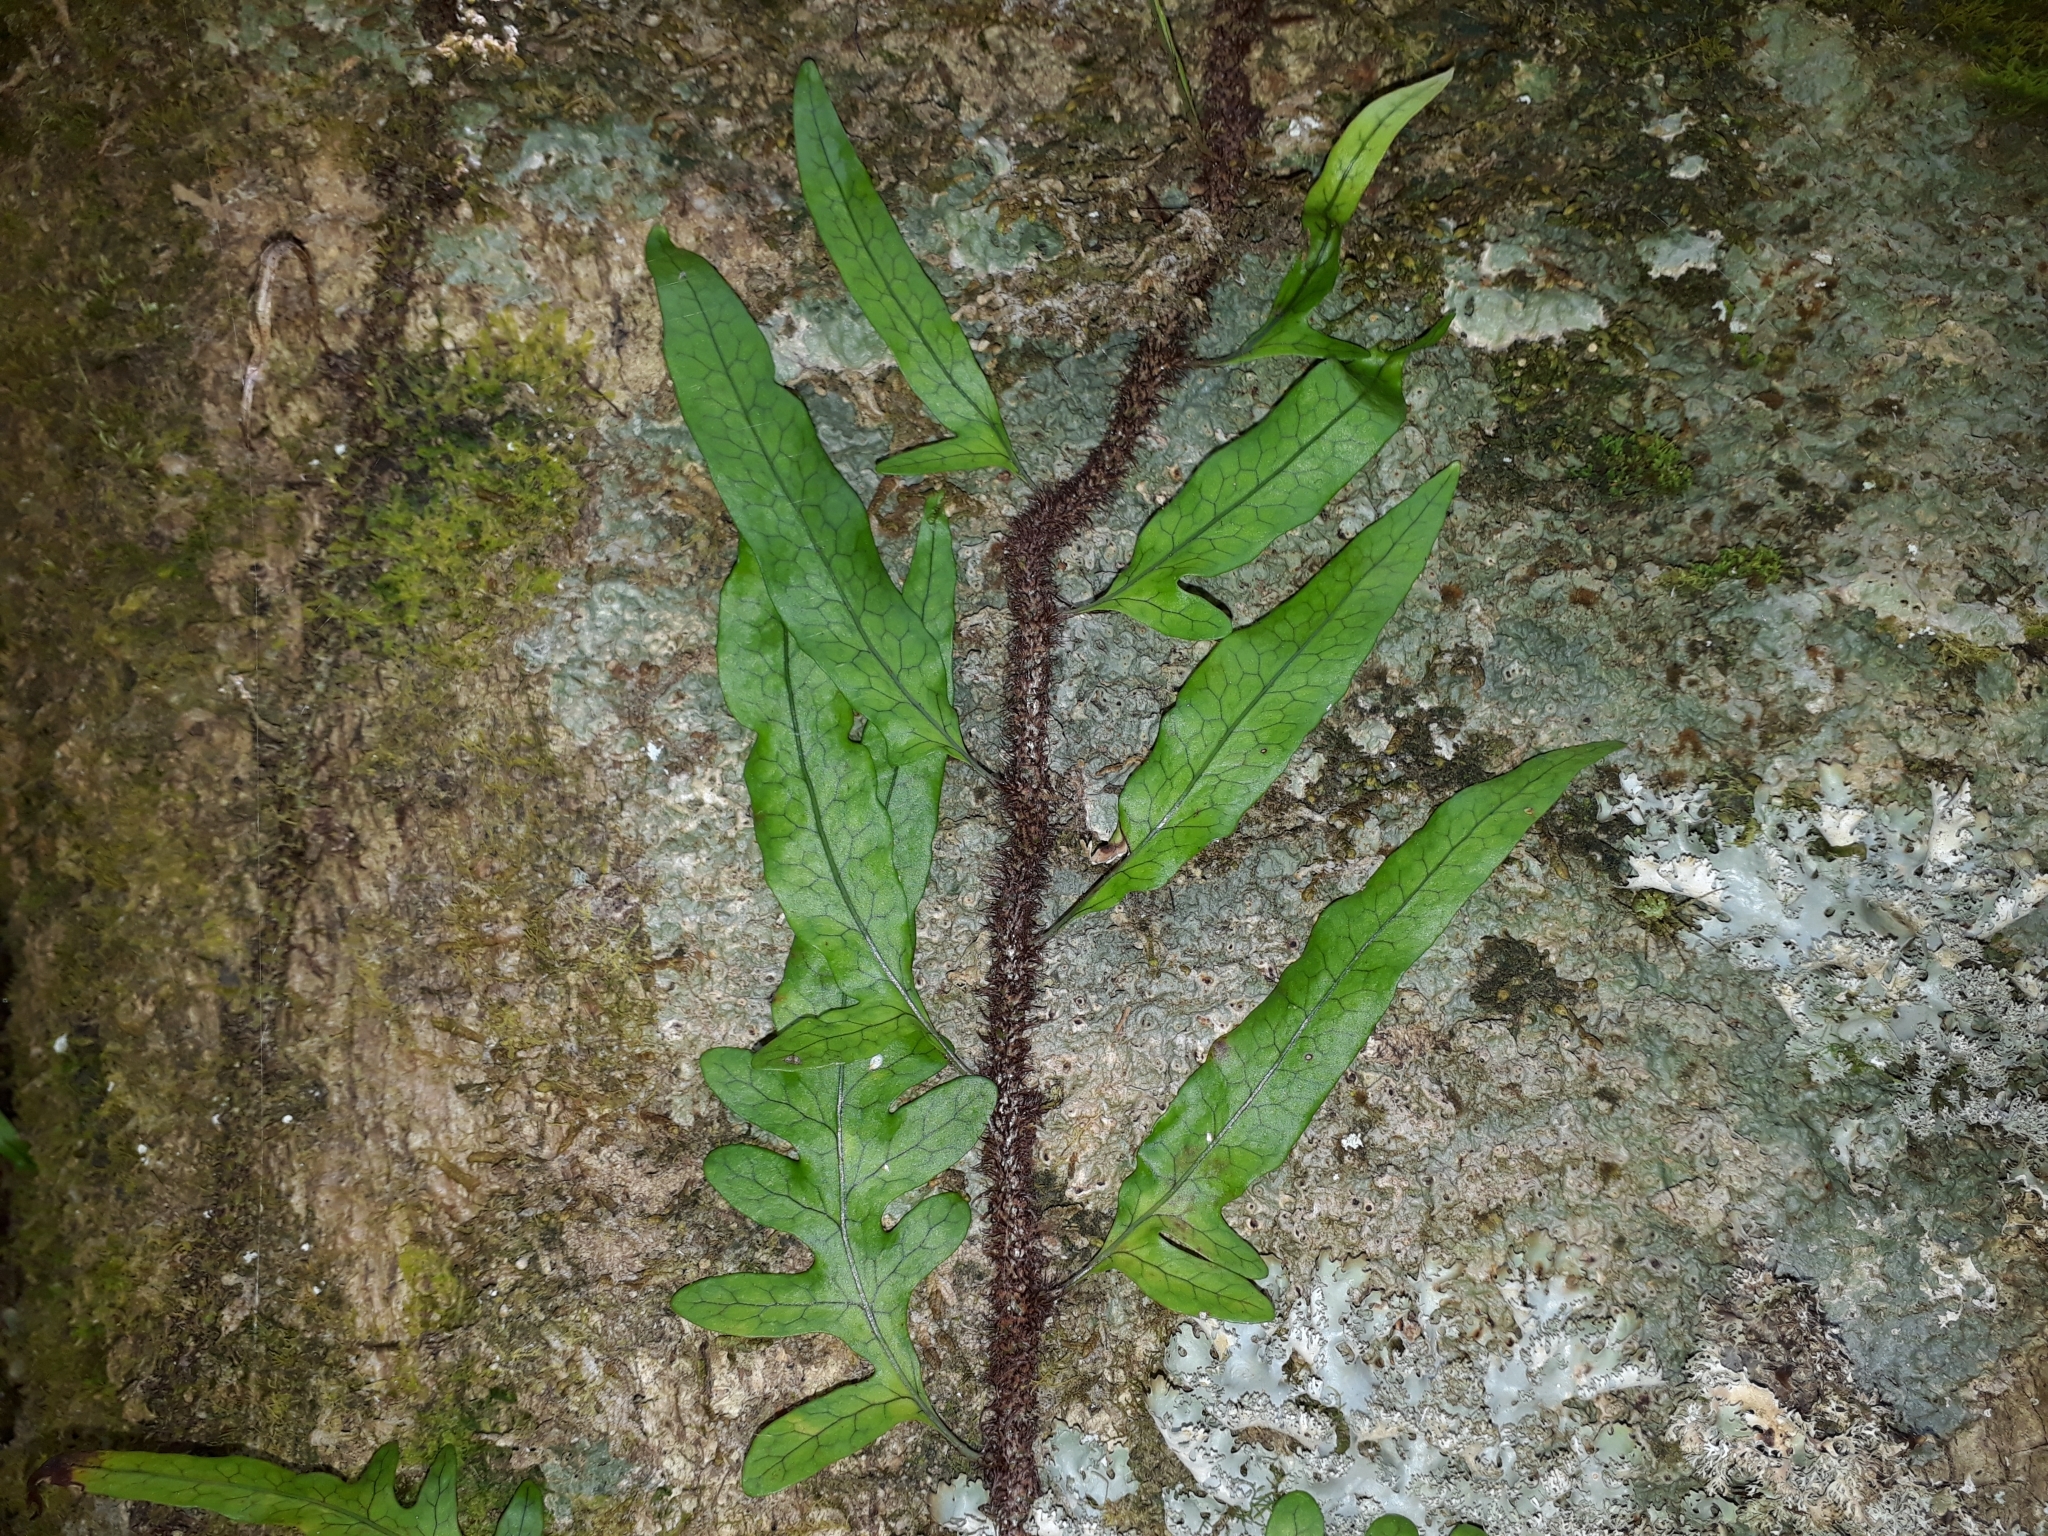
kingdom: Plantae
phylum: Tracheophyta
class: Polypodiopsida
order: Polypodiales
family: Polypodiaceae
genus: Lecanopteris
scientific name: Lecanopteris scandens
